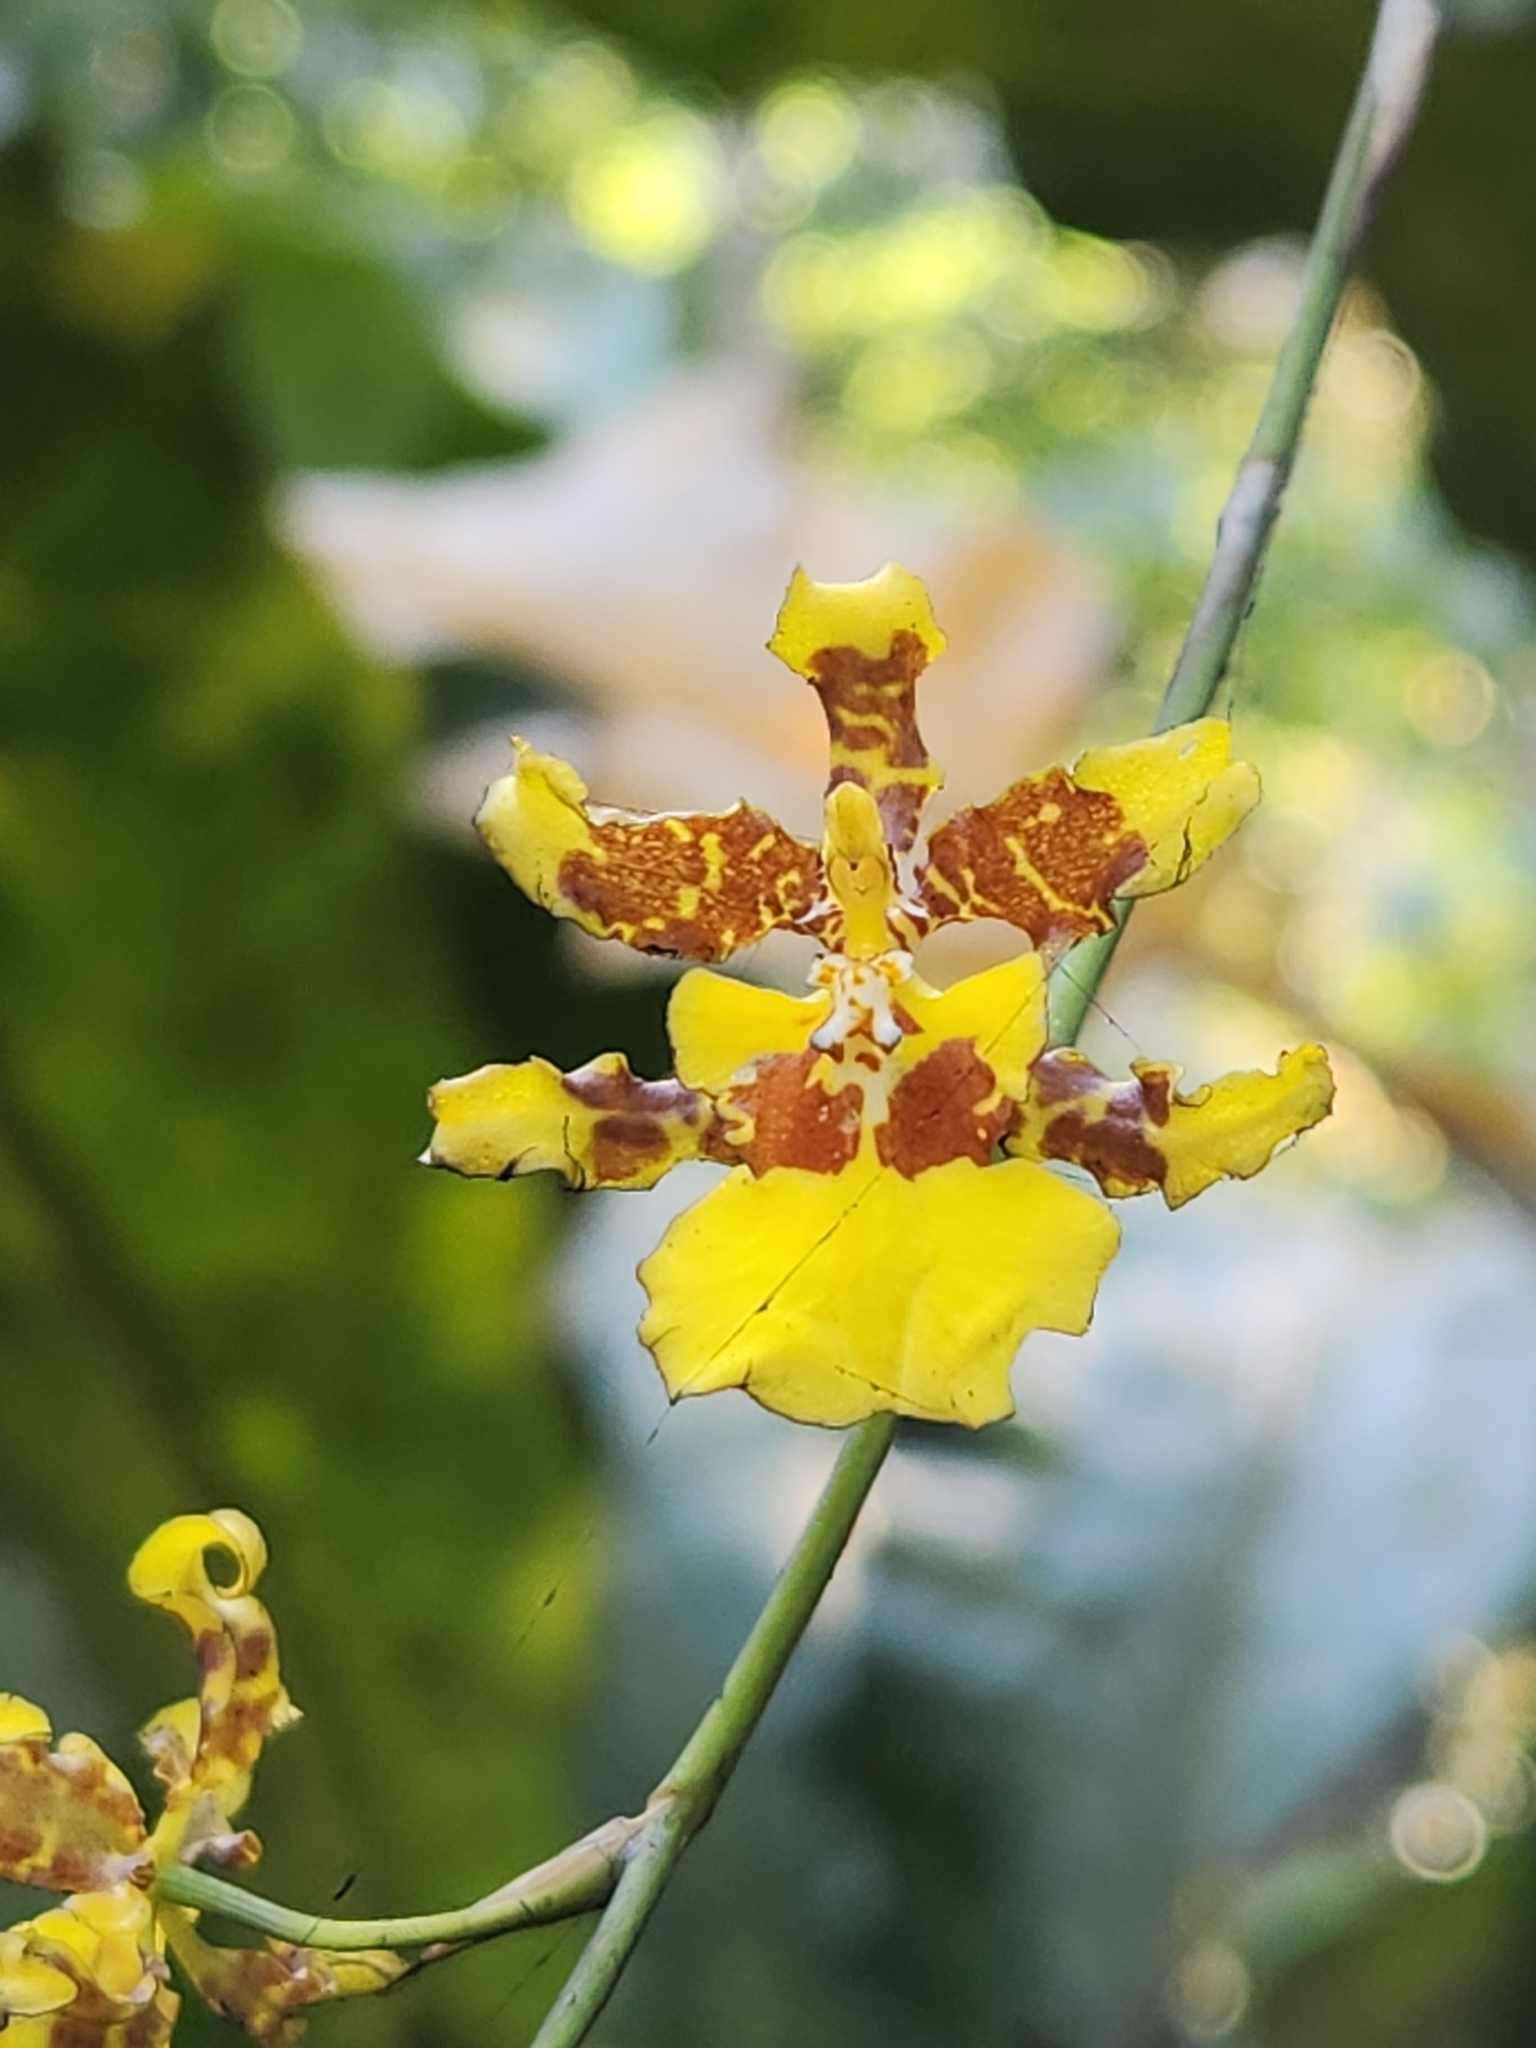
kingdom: Plantae
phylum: Tracheophyta
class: Liliopsida
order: Asparagales
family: Orchidaceae
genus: Oncidium
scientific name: Oncidium sphacelatum
